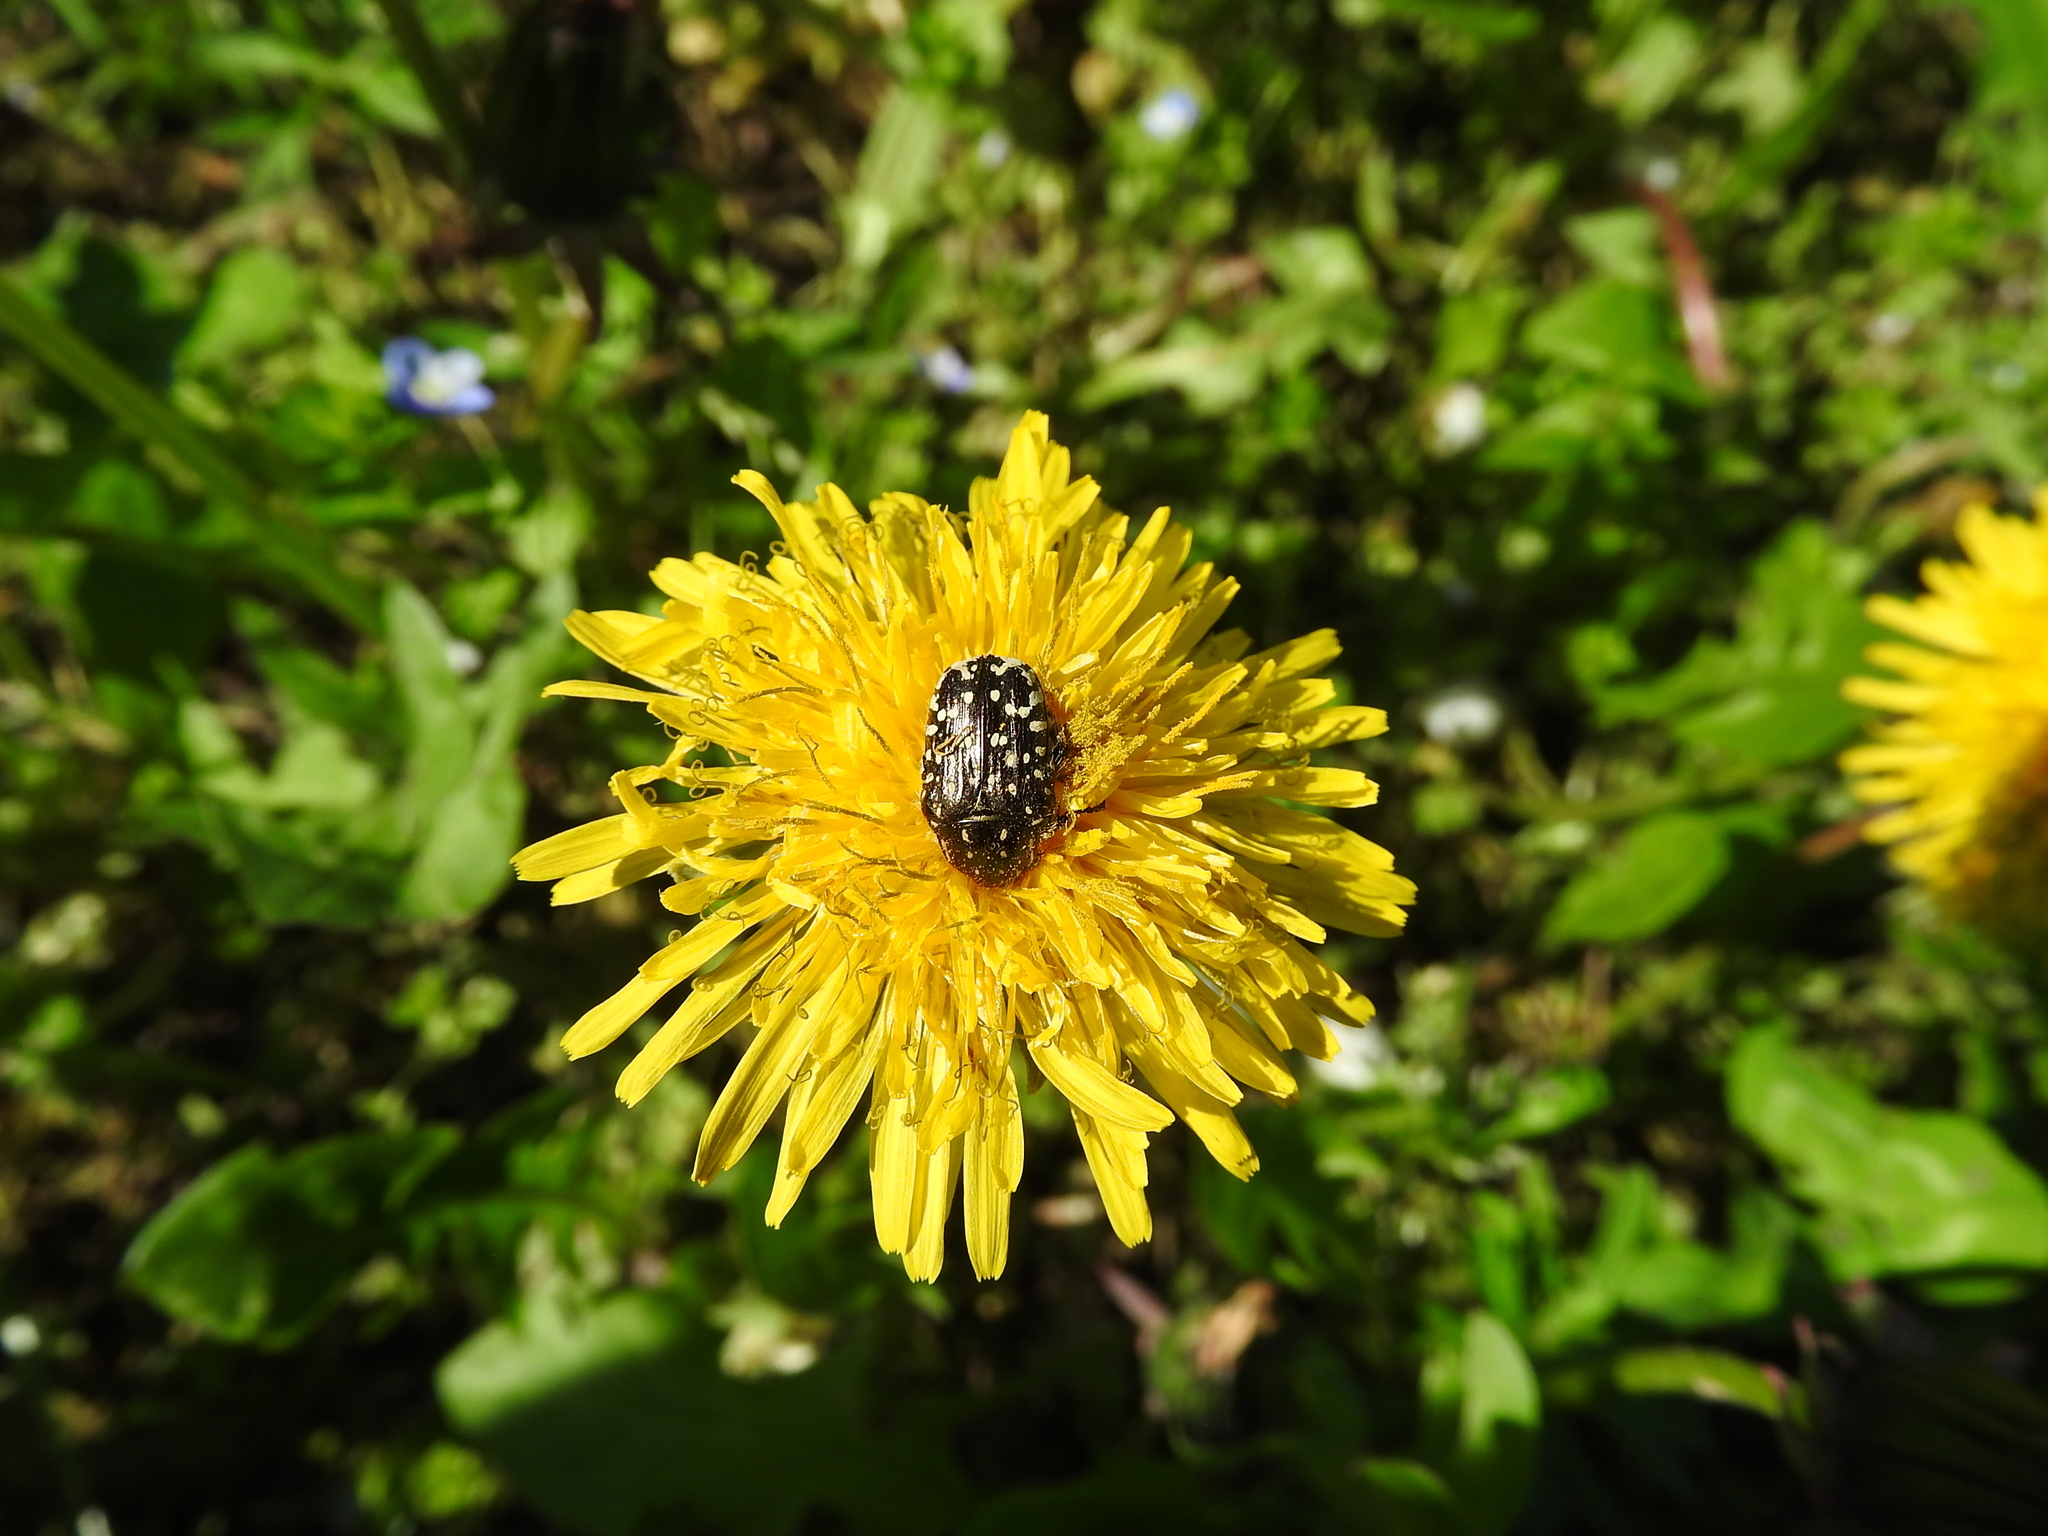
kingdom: Animalia
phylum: Arthropoda
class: Insecta
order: Coleoptera
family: Scarabaeidae
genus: Oxythyrea
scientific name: Oxythyrea funesta
